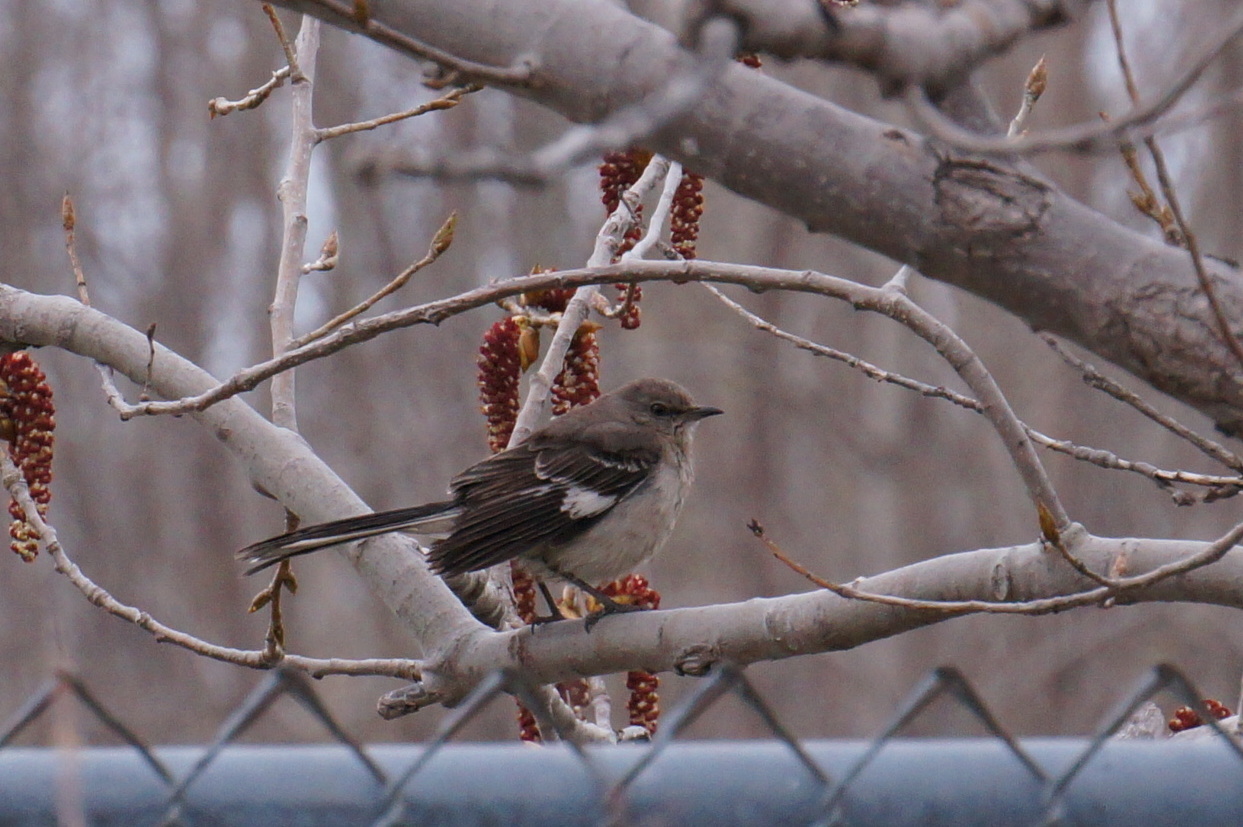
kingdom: Animalia
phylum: Chordata
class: Aves
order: Passeriformes
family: Mimidae
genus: Mimus
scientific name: Mimus polyglottos
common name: Northern mockingbird
